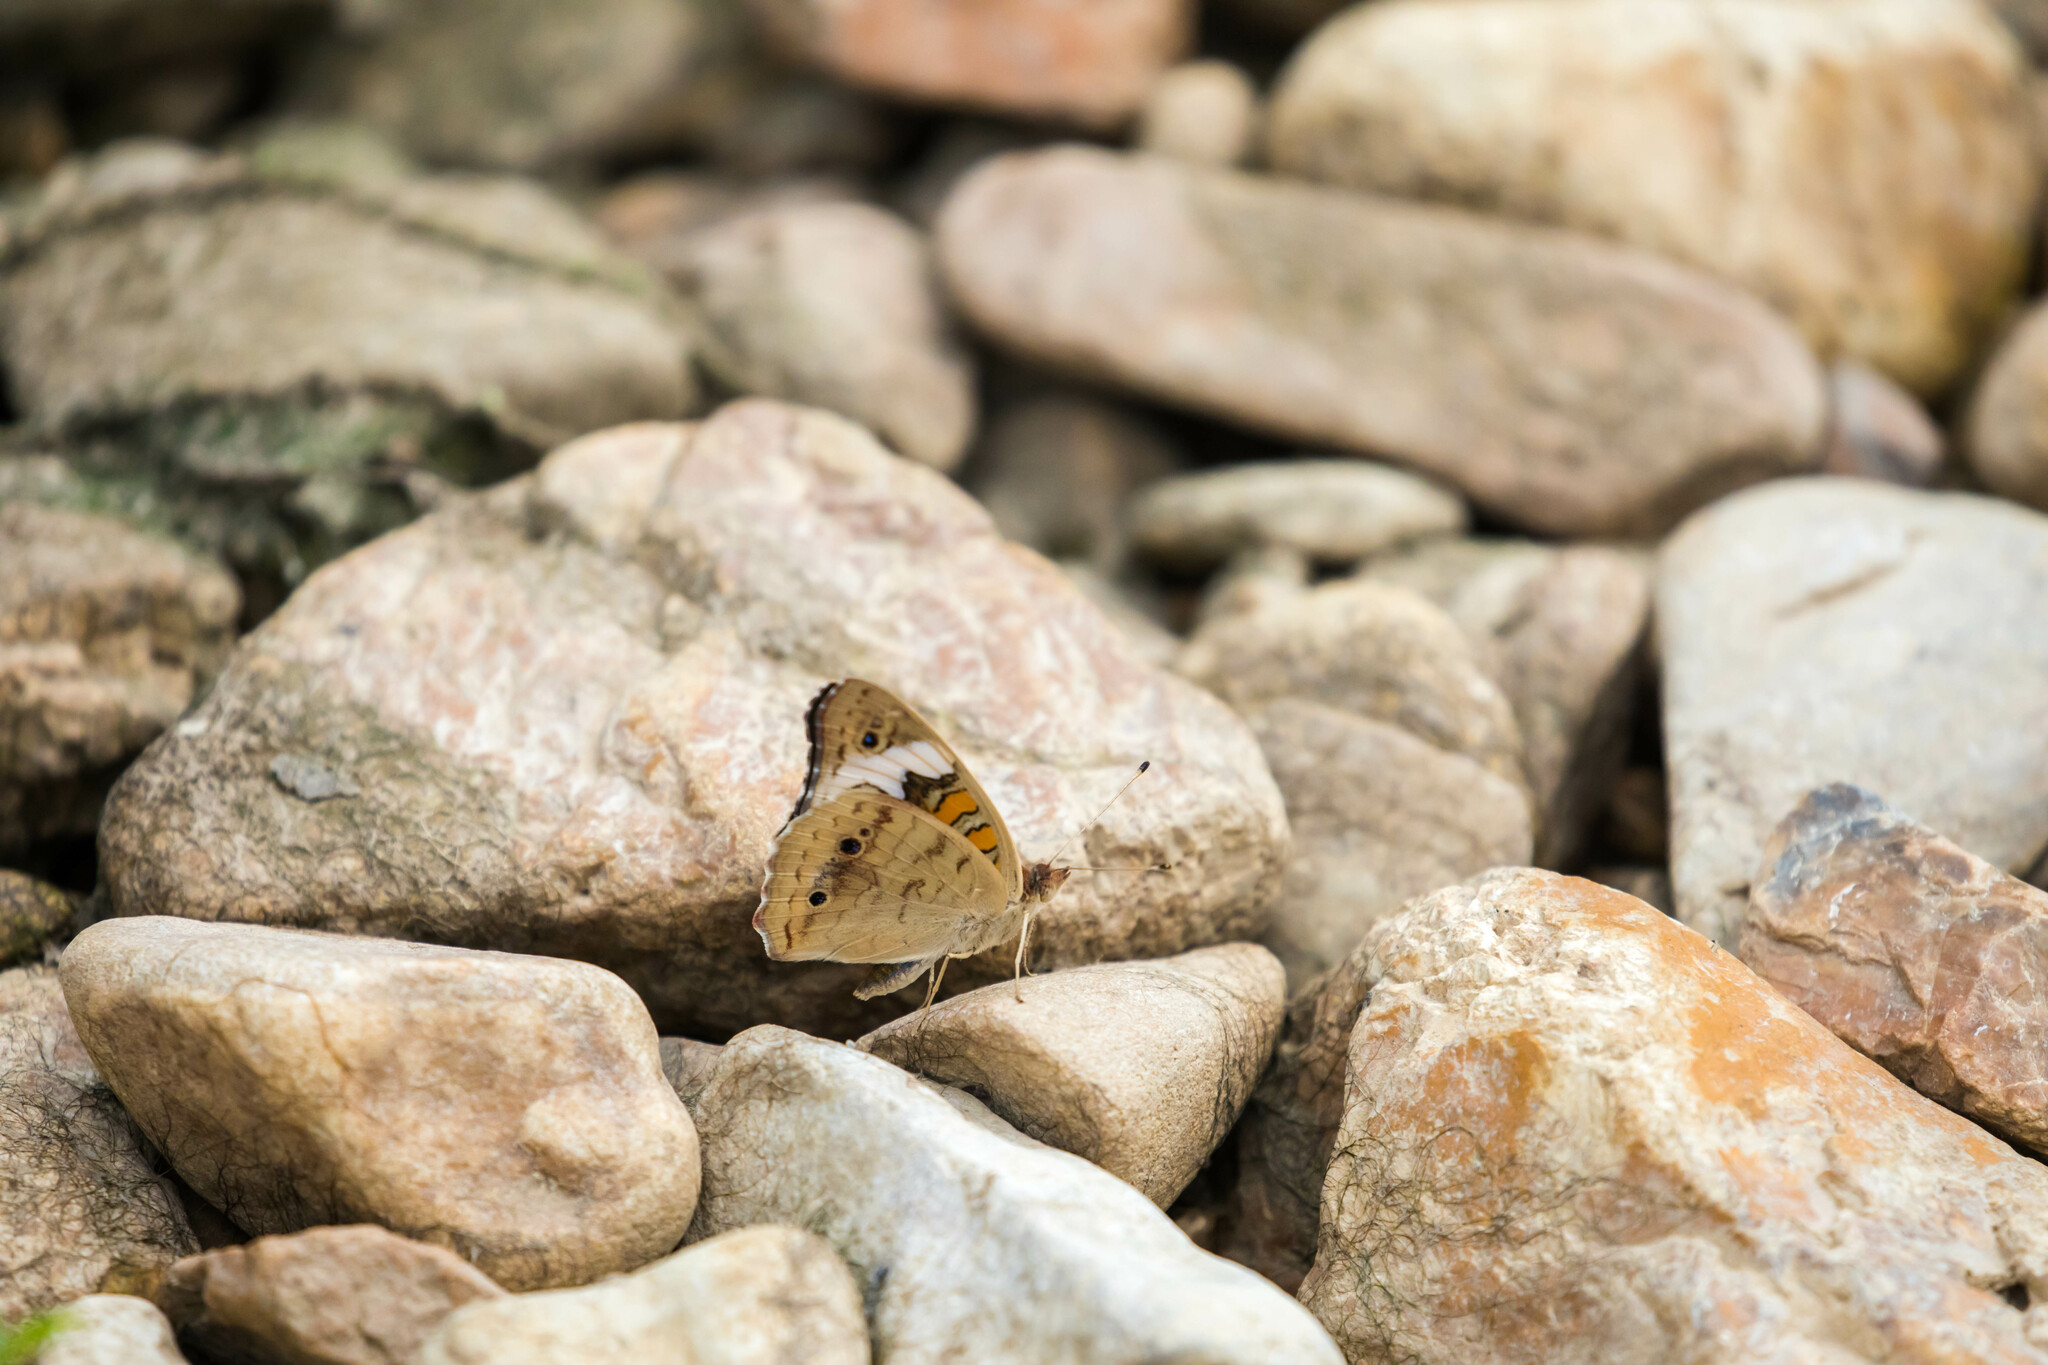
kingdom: Animalia
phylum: Arthropoda
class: Insecta
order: Lepidoptera
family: Nymphalidae
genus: Junonia
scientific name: Junonia coenia
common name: Common buckeye
